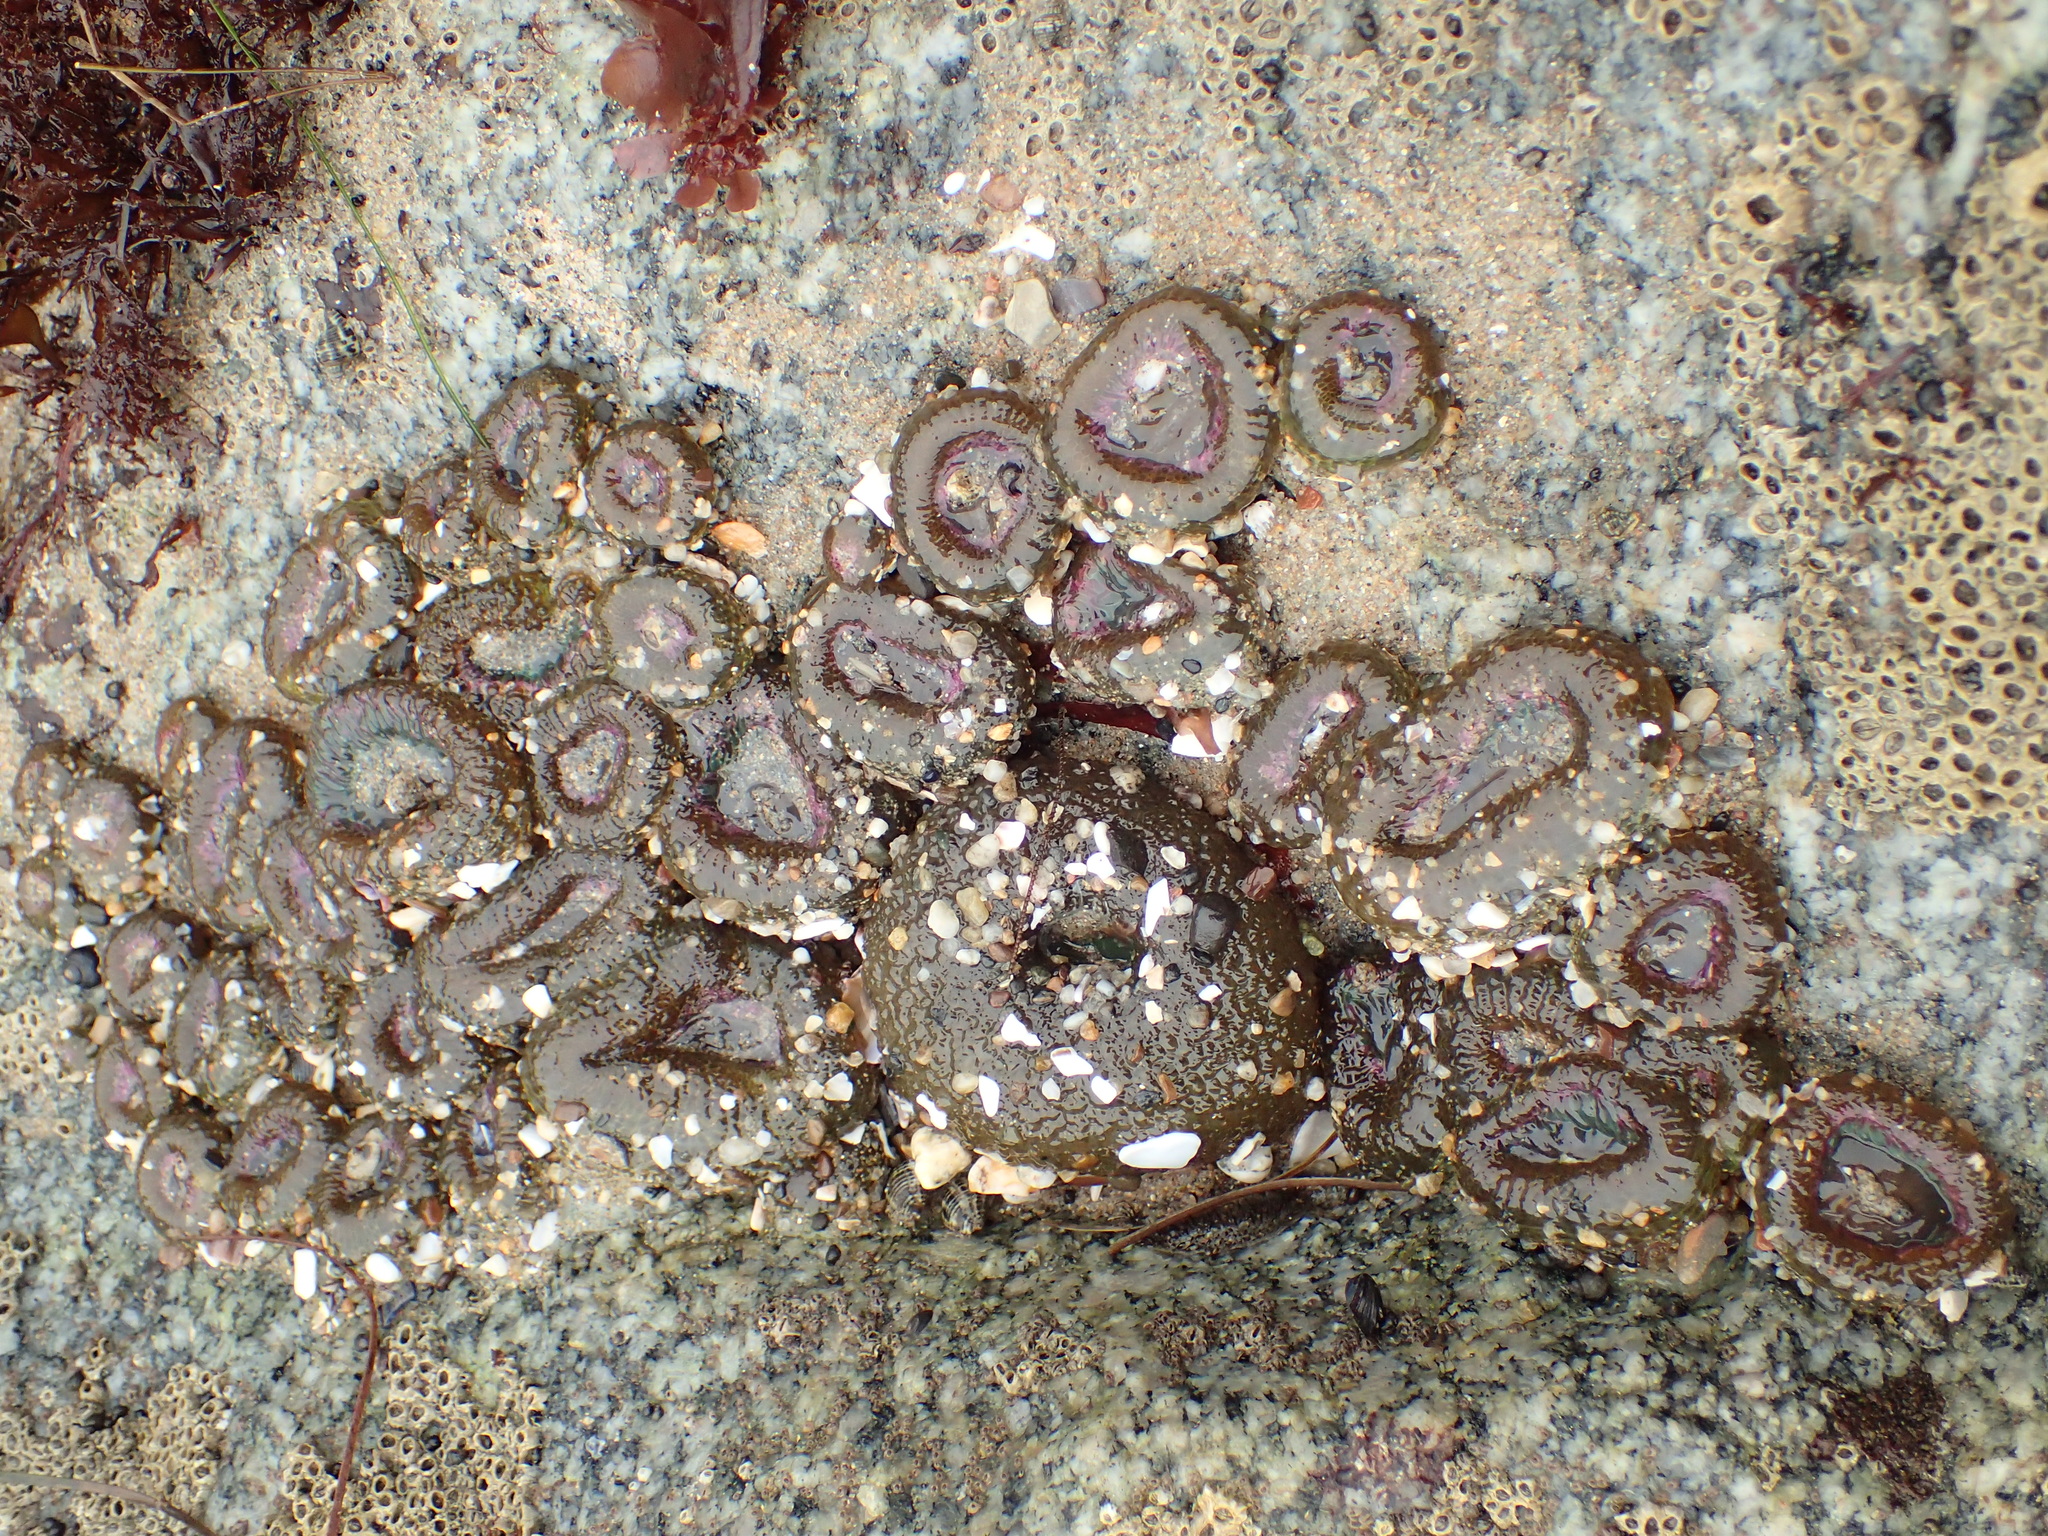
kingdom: Animalia
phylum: Cnidaria
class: Anthozoa
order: Actiniaria
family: Actiniidae
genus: Anthopleura
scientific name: Anthopleura elegantissima
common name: Clonal anemone
